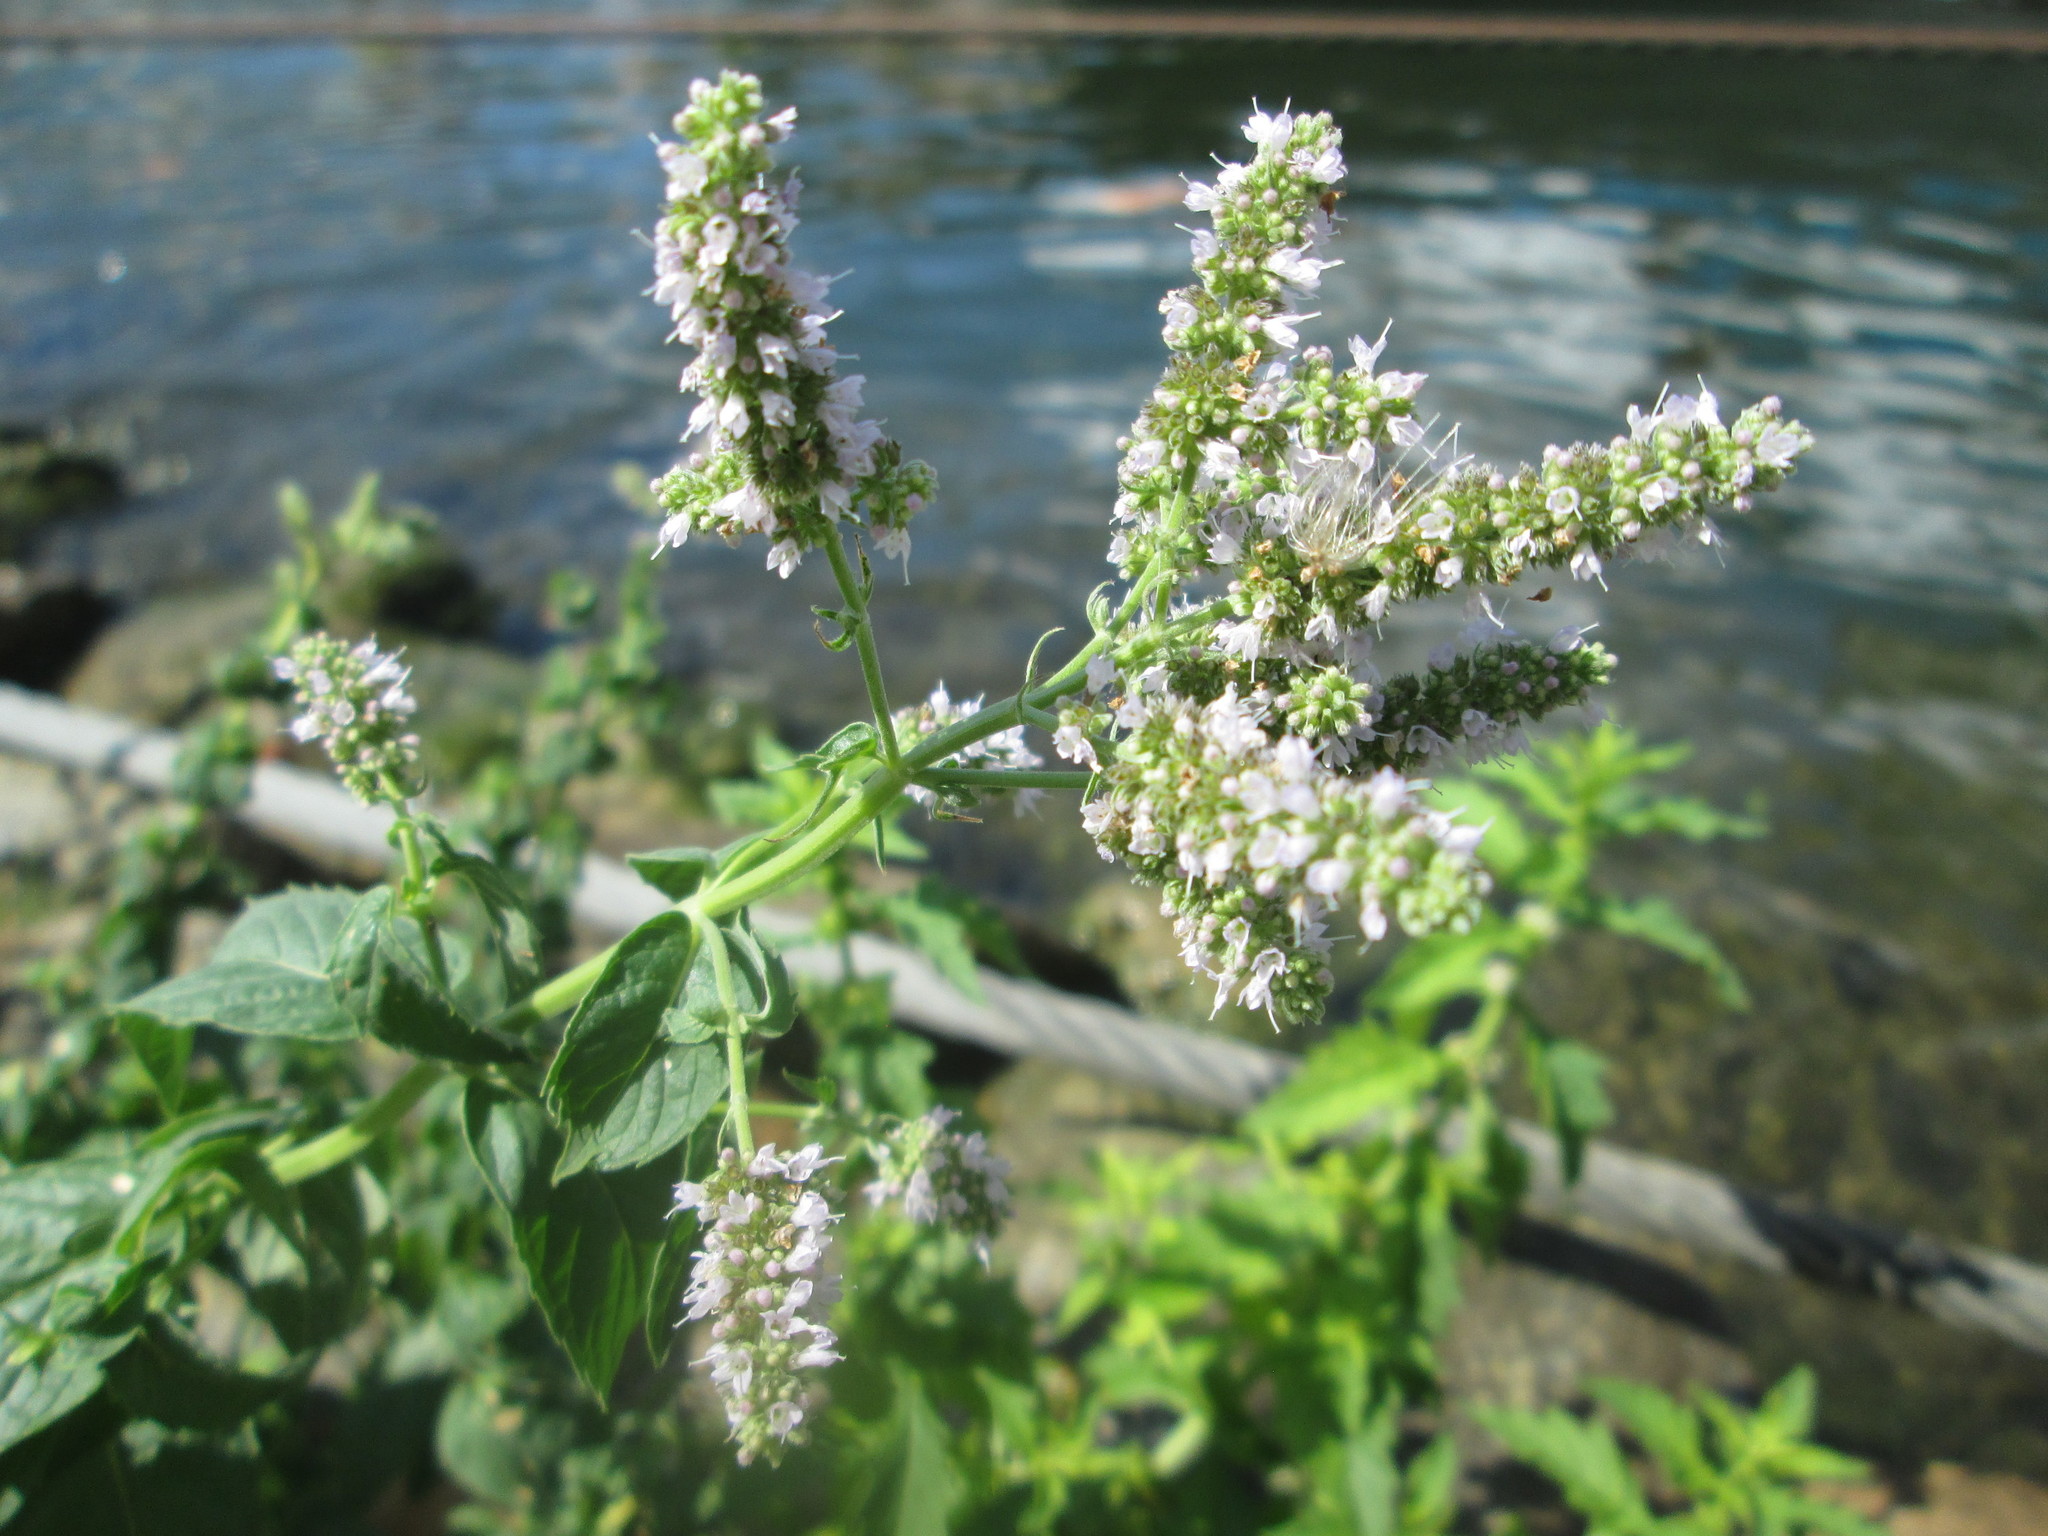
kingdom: Plantae
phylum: Tracheophyta
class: Magnoliopsida
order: Lamiales
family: Lamiaceae
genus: Mentha
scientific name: Mentha longifolia
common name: Horse mint
